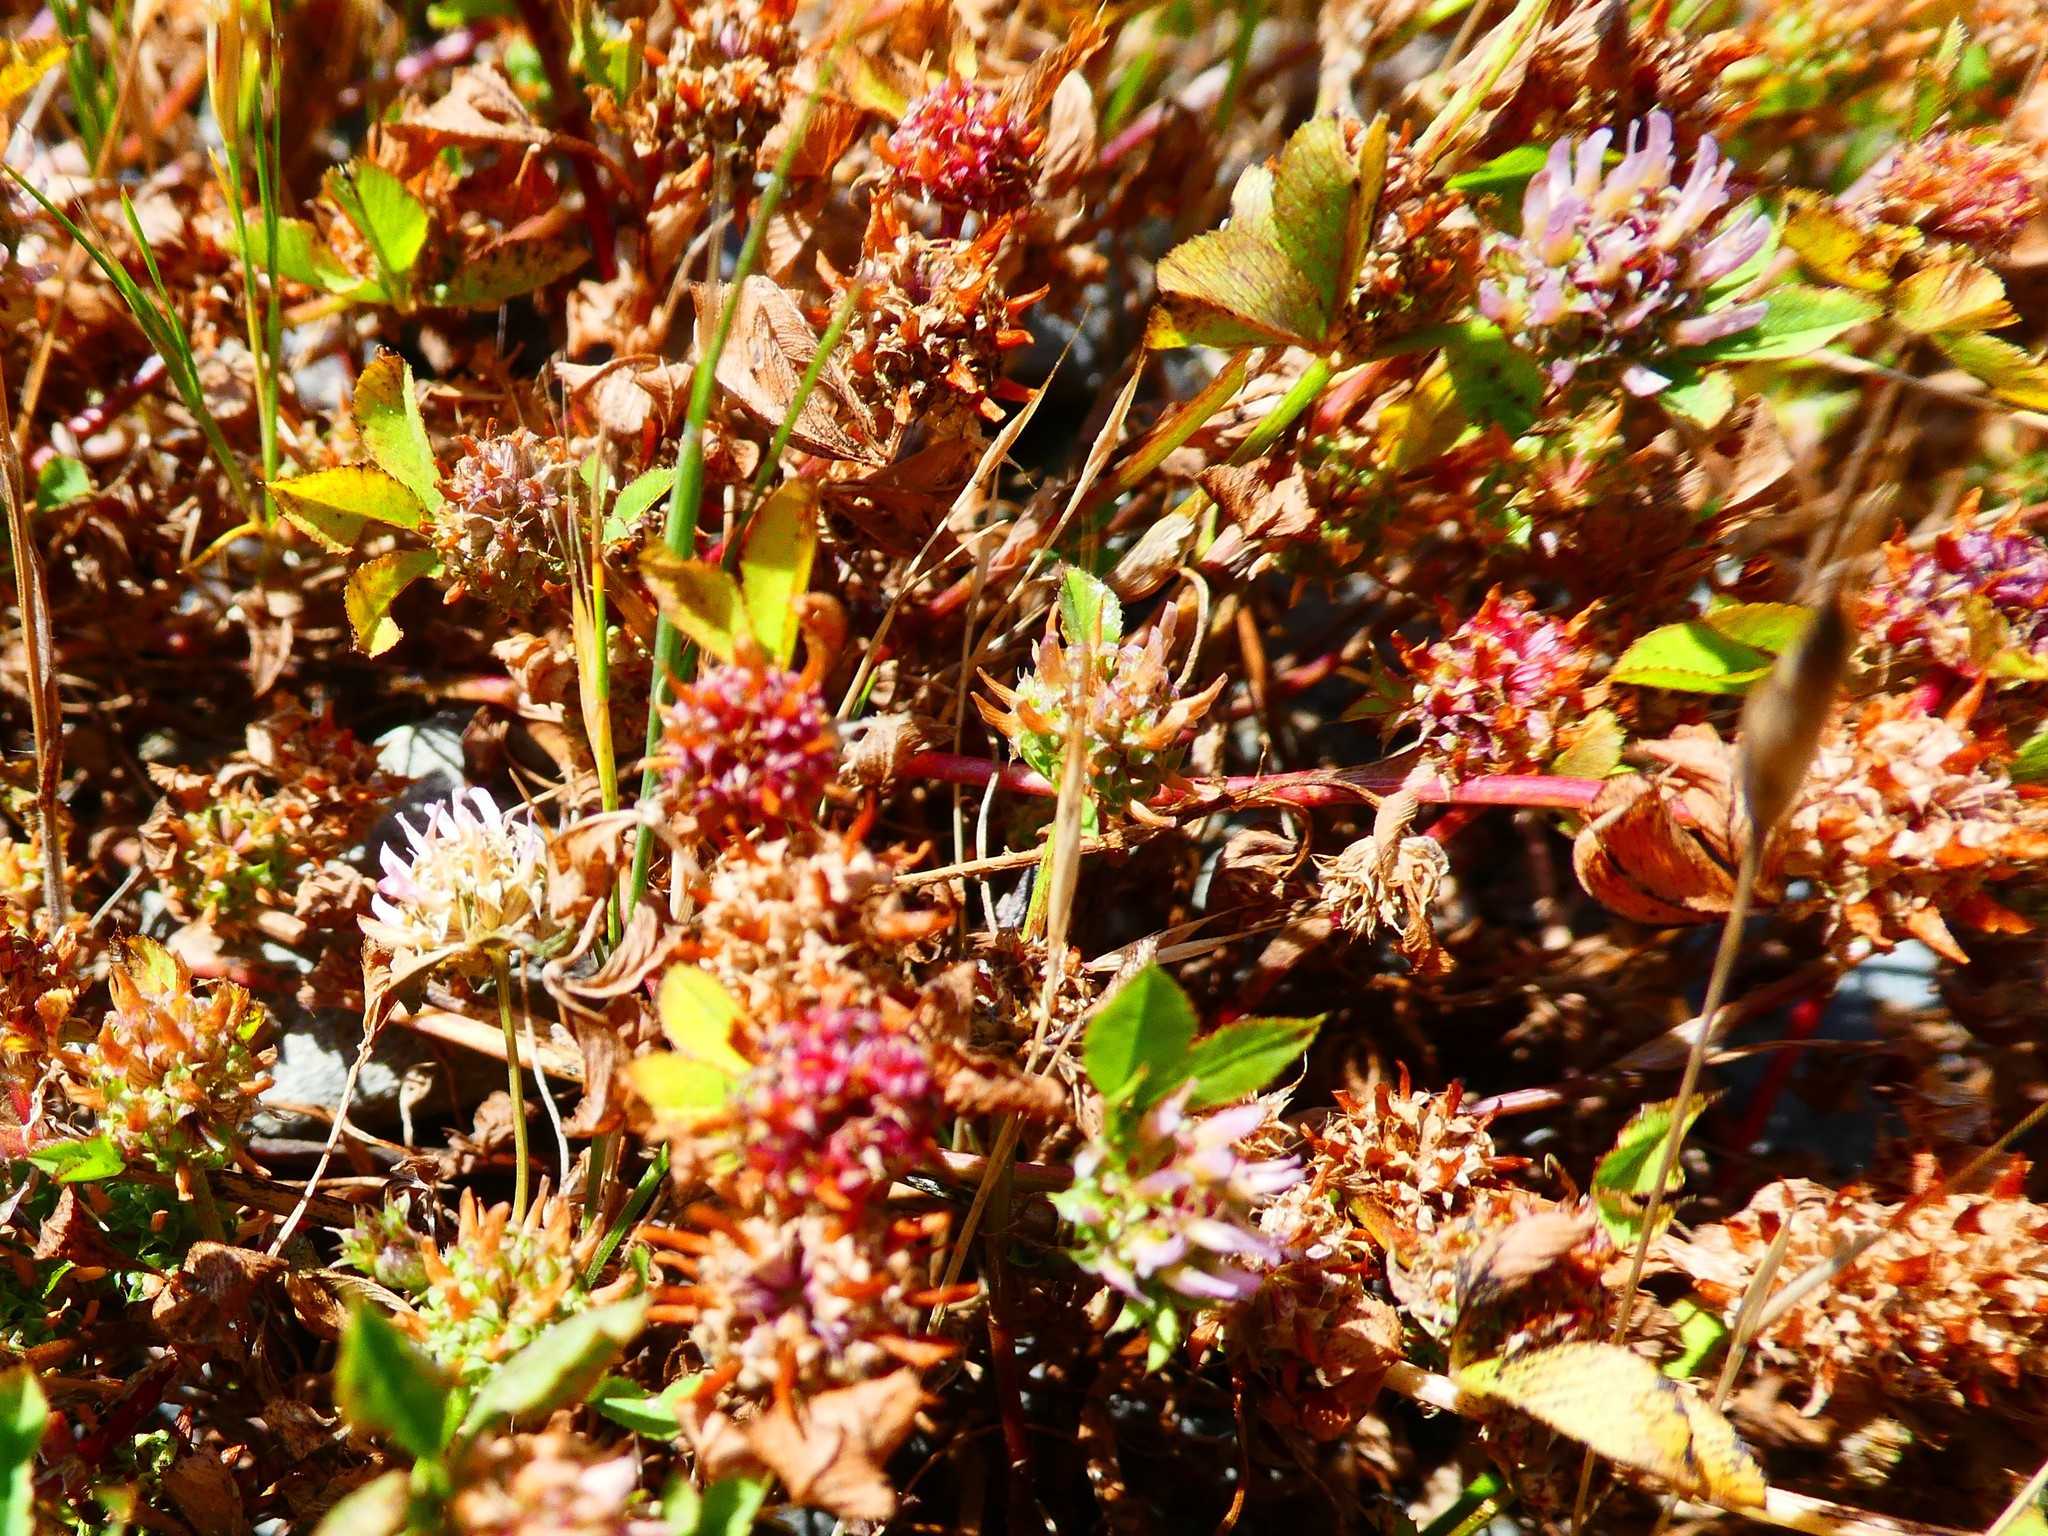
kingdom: Plantae
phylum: Tracheophyta
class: Magnoliopsida
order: Fabales
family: Fabaceae
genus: Trifolium
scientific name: Trifolium glomeratum
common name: Clustered clover
